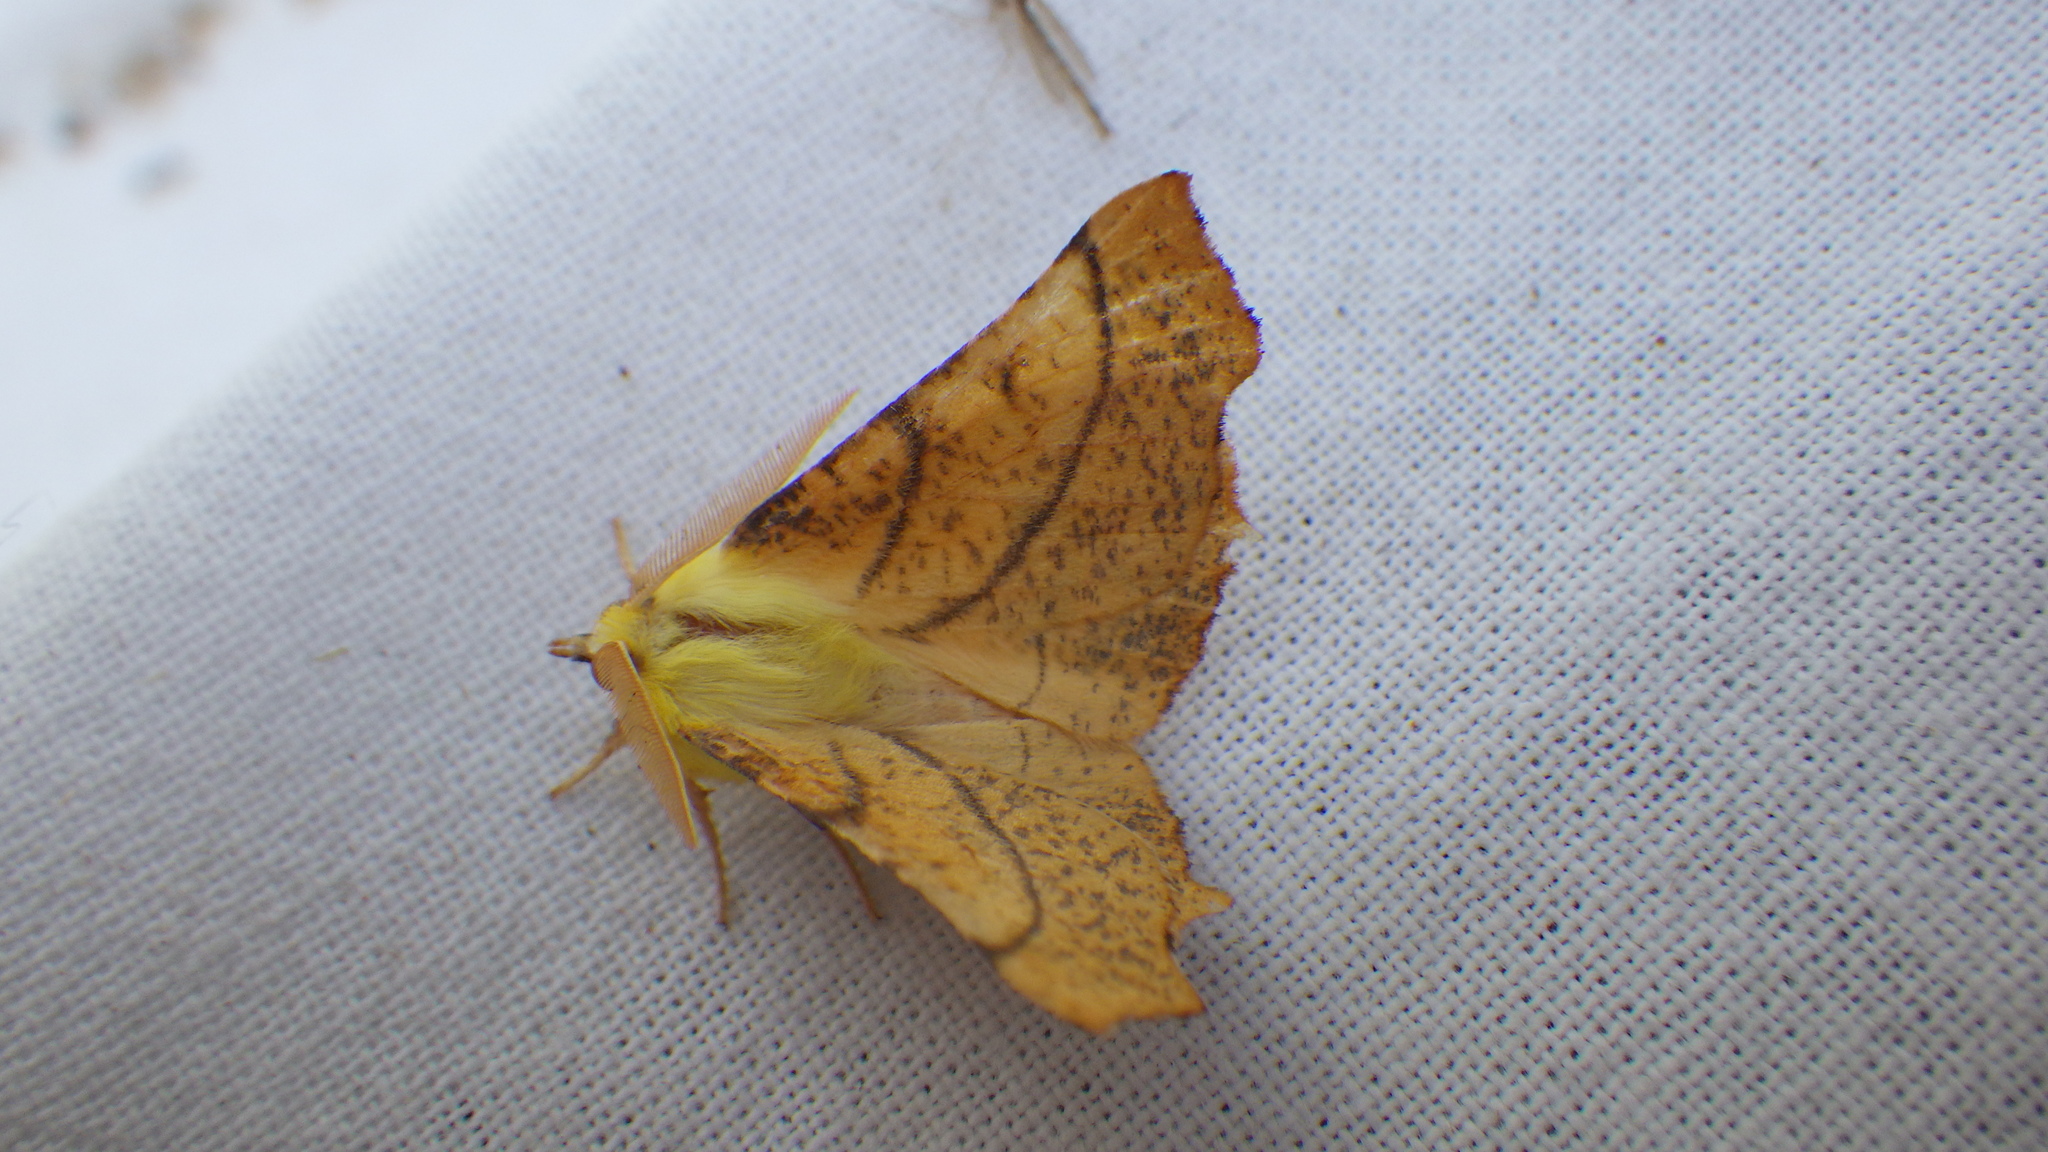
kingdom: Animalia
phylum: Arthropoda
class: Insecta
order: Lepidoptera
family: Geometridae
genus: Ennomos
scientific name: Ennomos alniaria
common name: Canary-shouldered thorn
